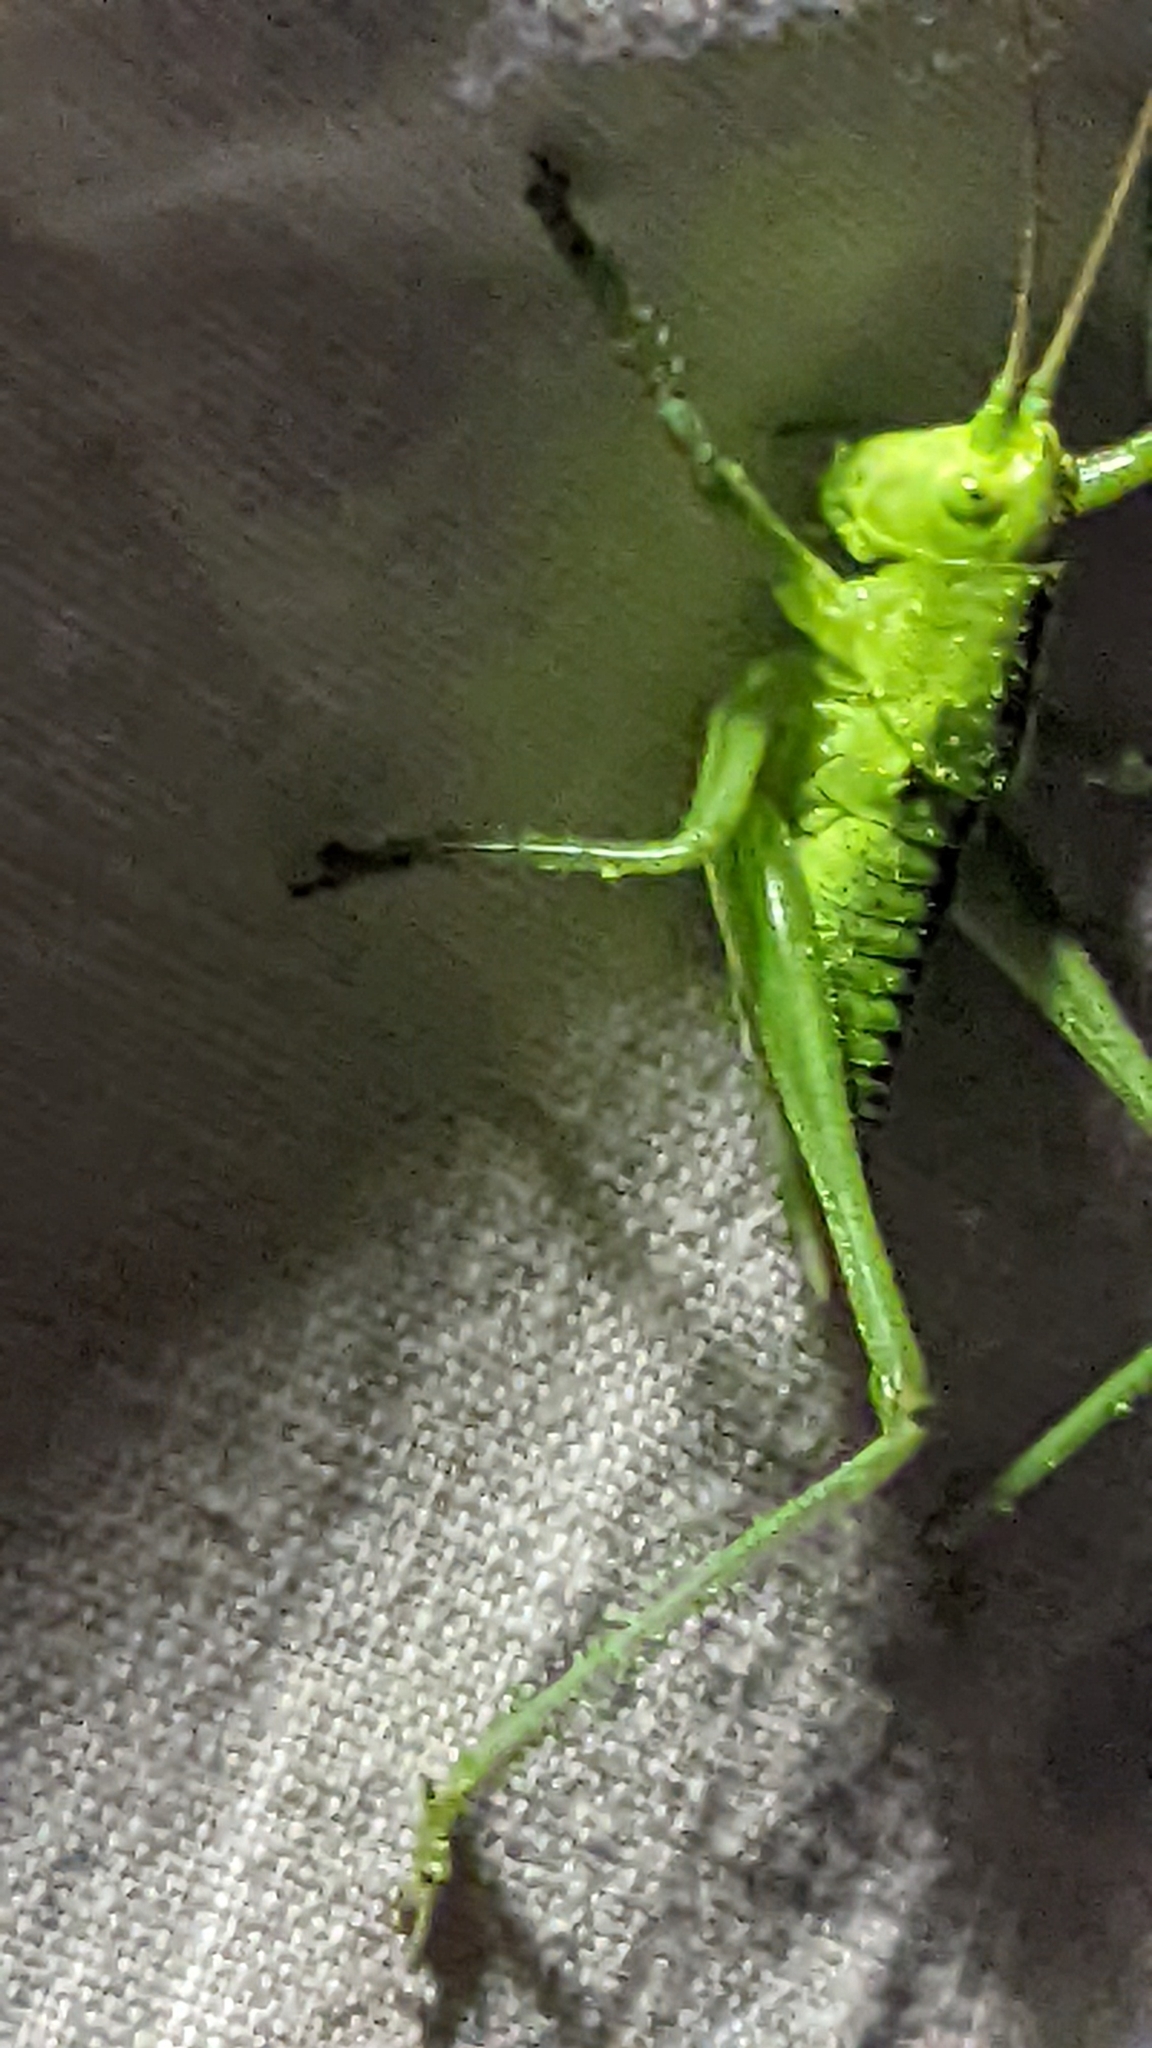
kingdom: Animalia
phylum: Arthropoda
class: Insecta
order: Orthoptera
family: Tettigoniidae
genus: Tettigonia
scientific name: Tettigonia viridissima
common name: Great green bush-cricket
